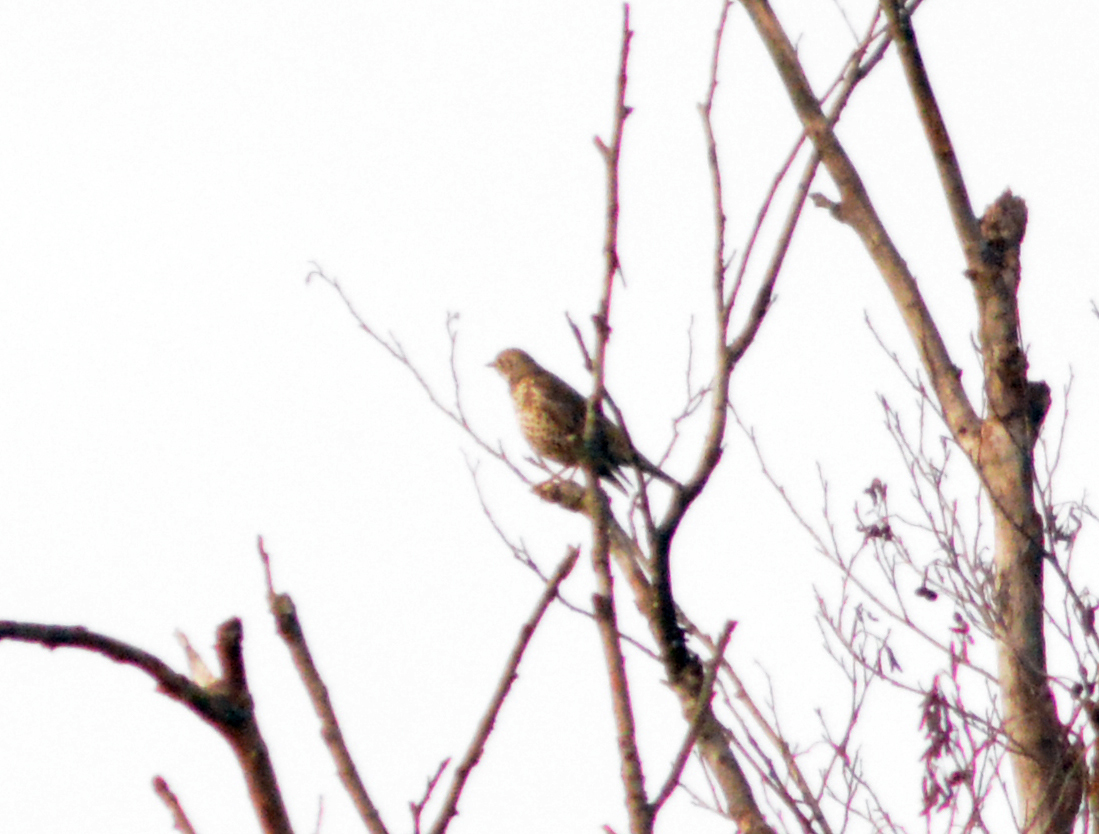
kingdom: Animalia
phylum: Chordata
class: Aves
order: Passeriformes
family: Turdidae
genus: Turdus
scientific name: Turdus viscivorus
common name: Mistle thrush
